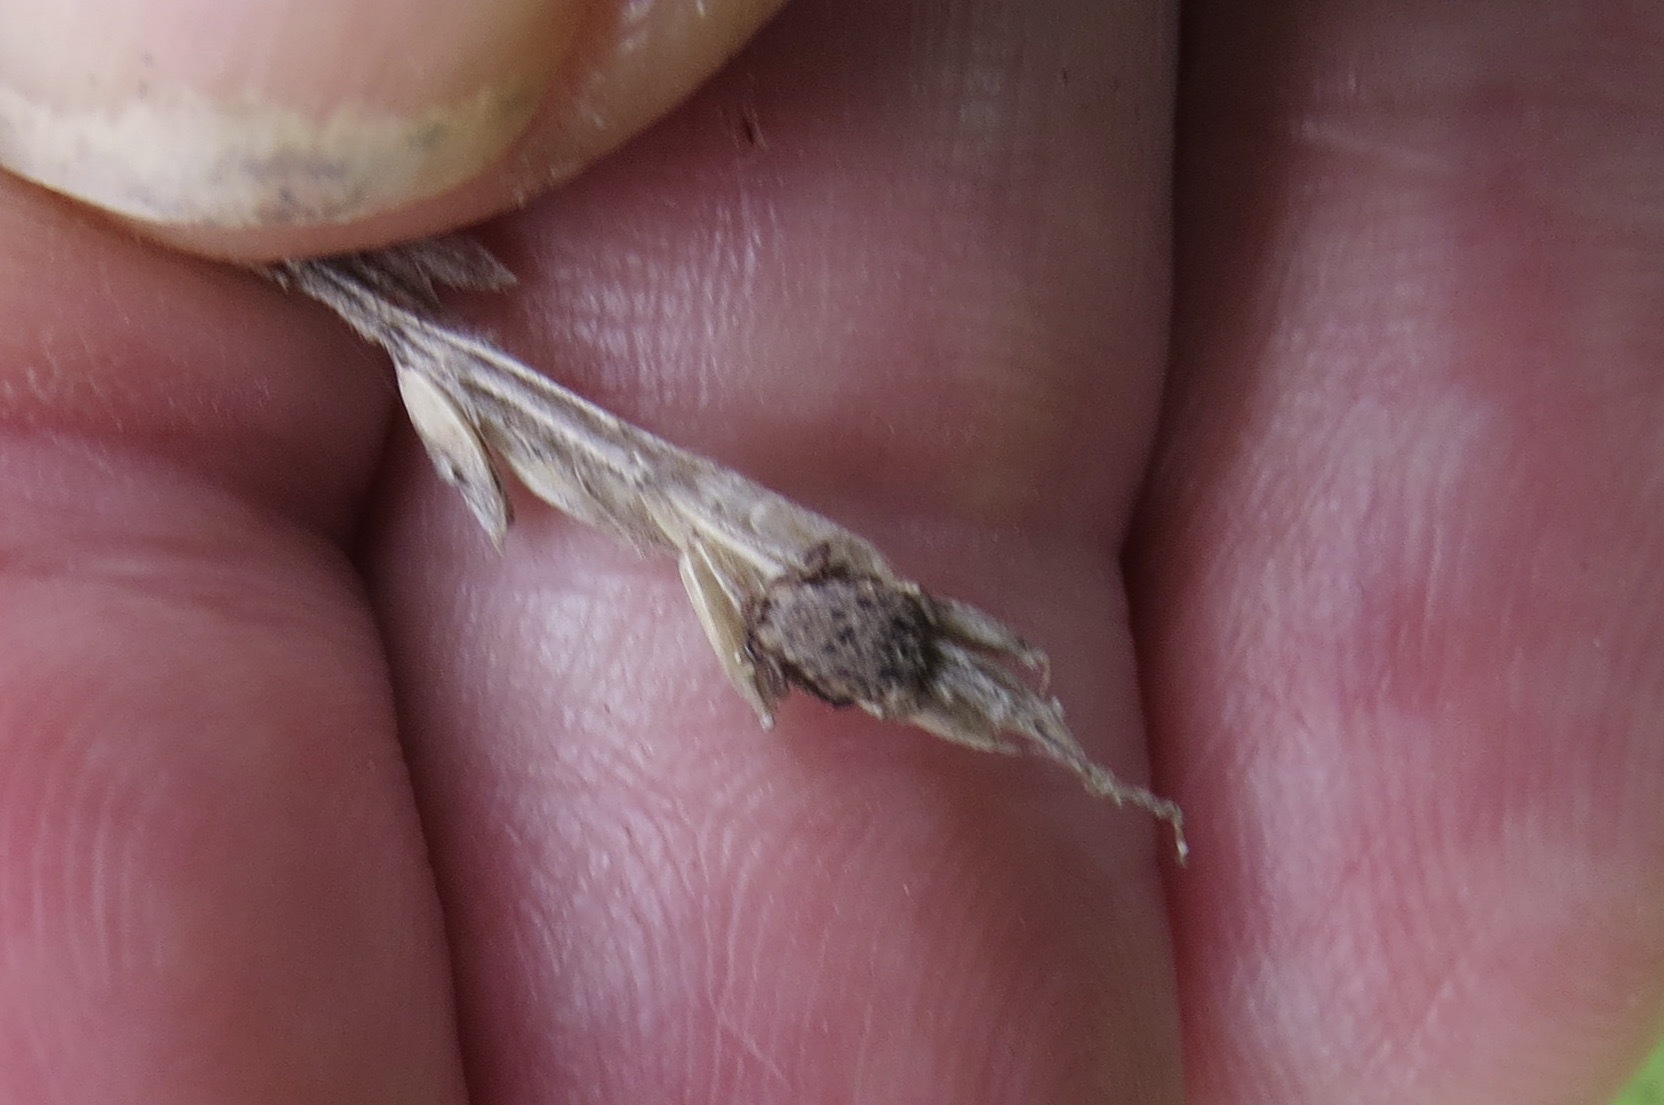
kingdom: Animalia
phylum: Arthropoda
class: Arachnida
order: Ixodida
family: Ixodidae
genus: Dermacentor
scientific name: Dermacentor occidentalis
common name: Net tick
